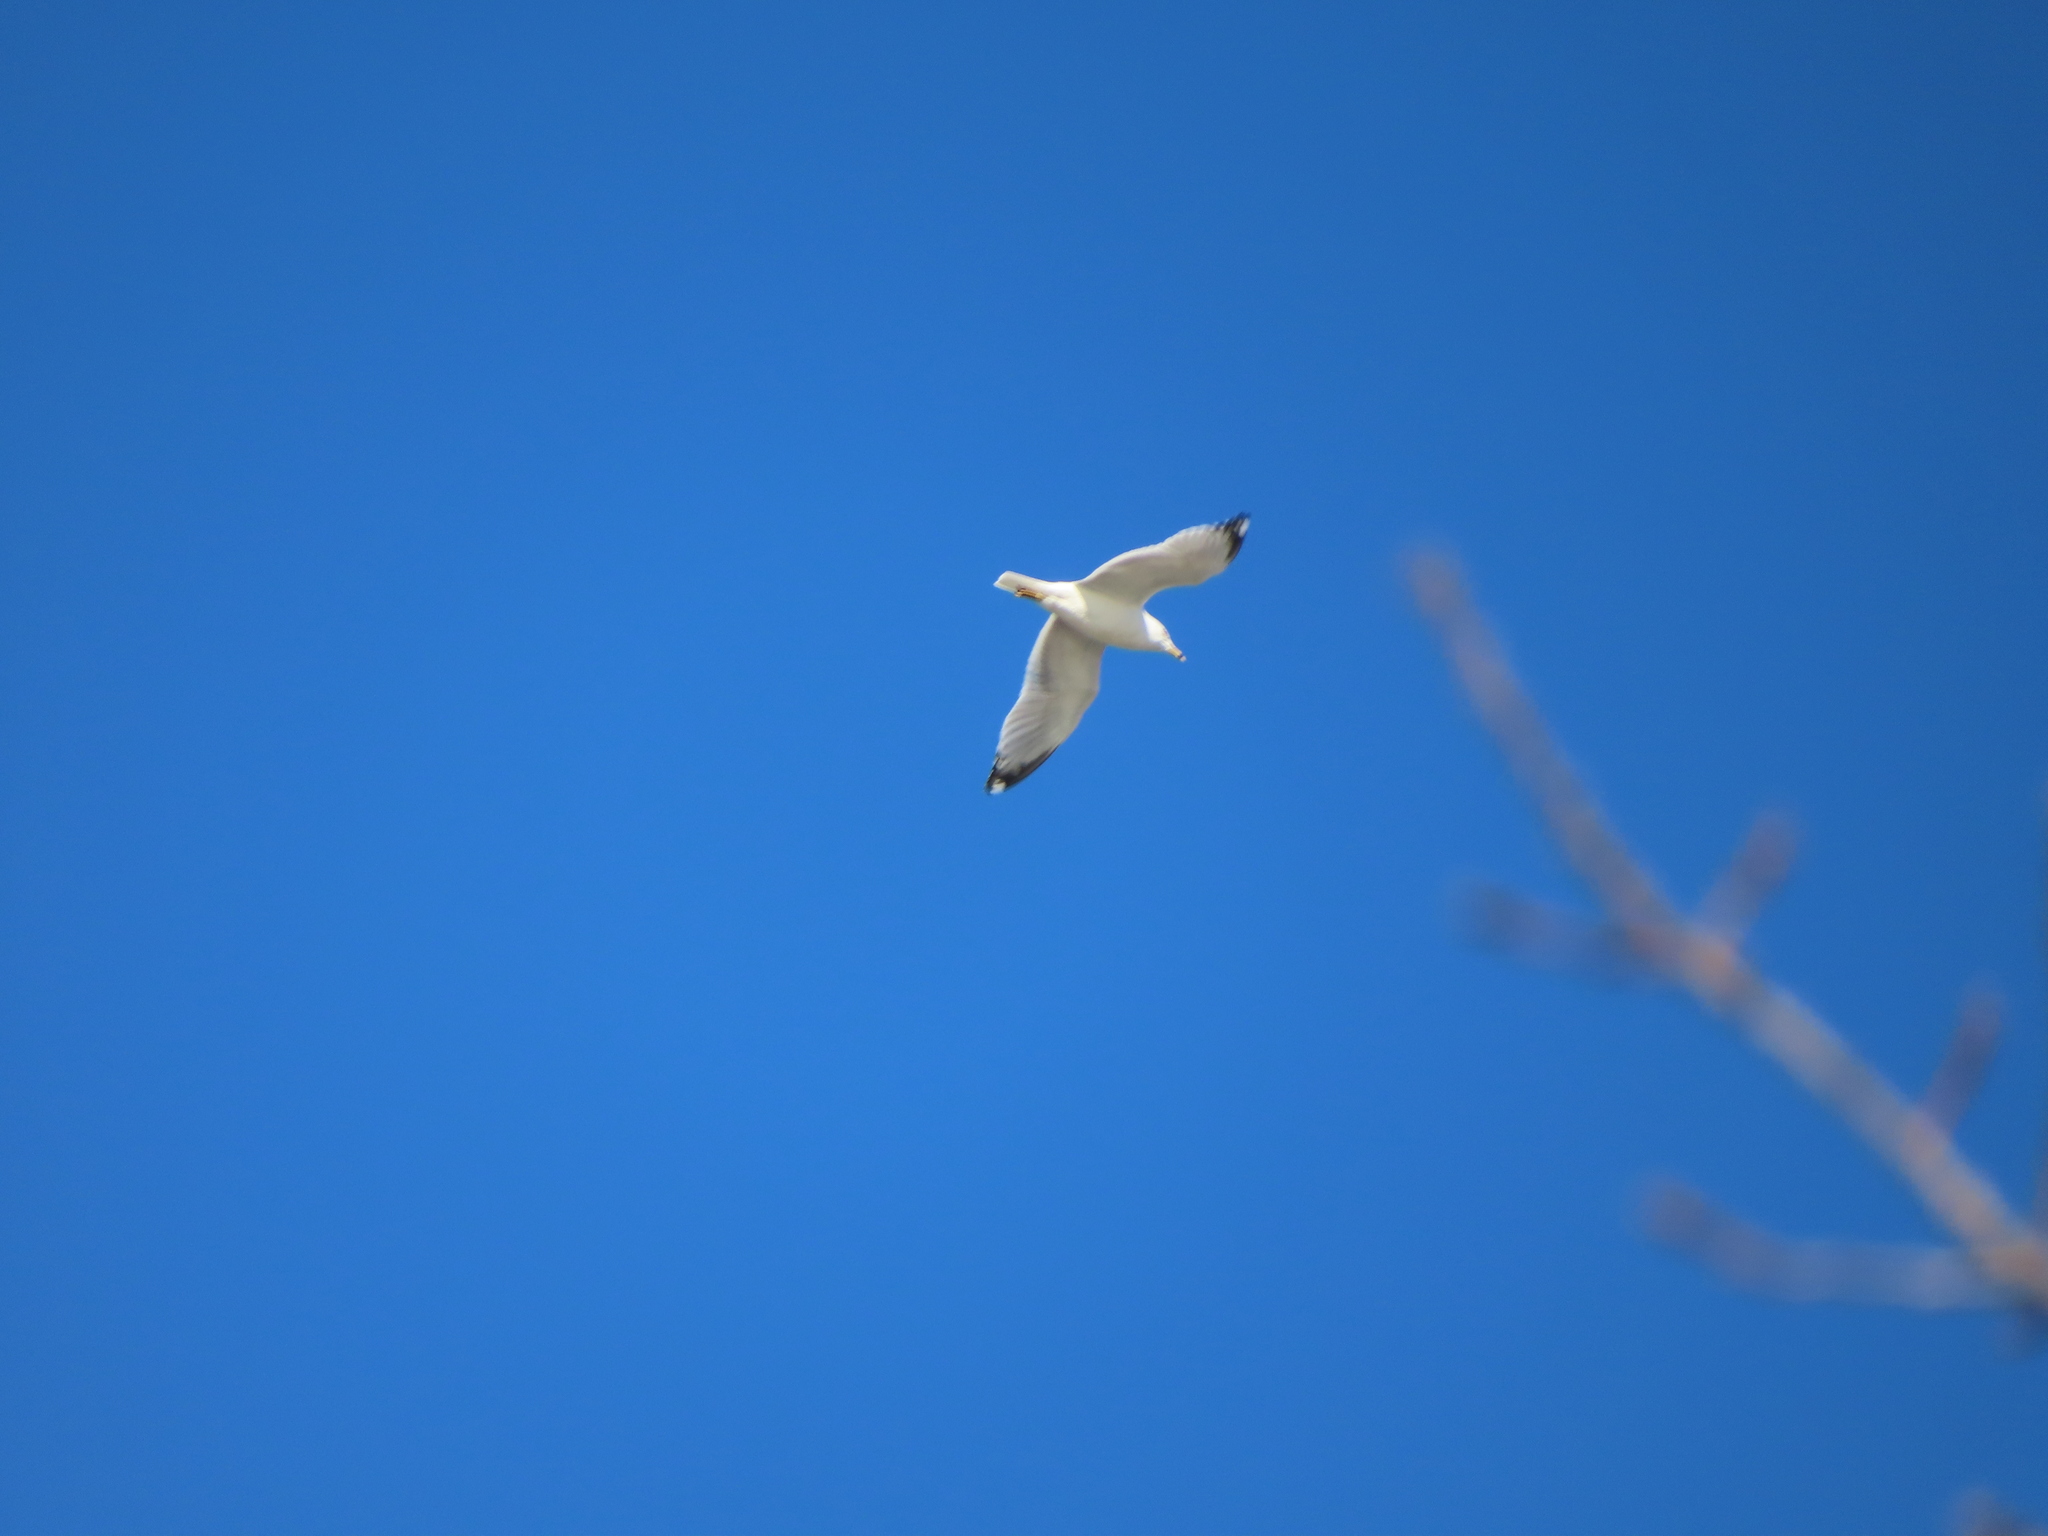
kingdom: Animalia
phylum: Chordata
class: Aves
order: Charadriiformes
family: Laridae
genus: Larus
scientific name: Larus delawarensis
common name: Ring-billed gull
